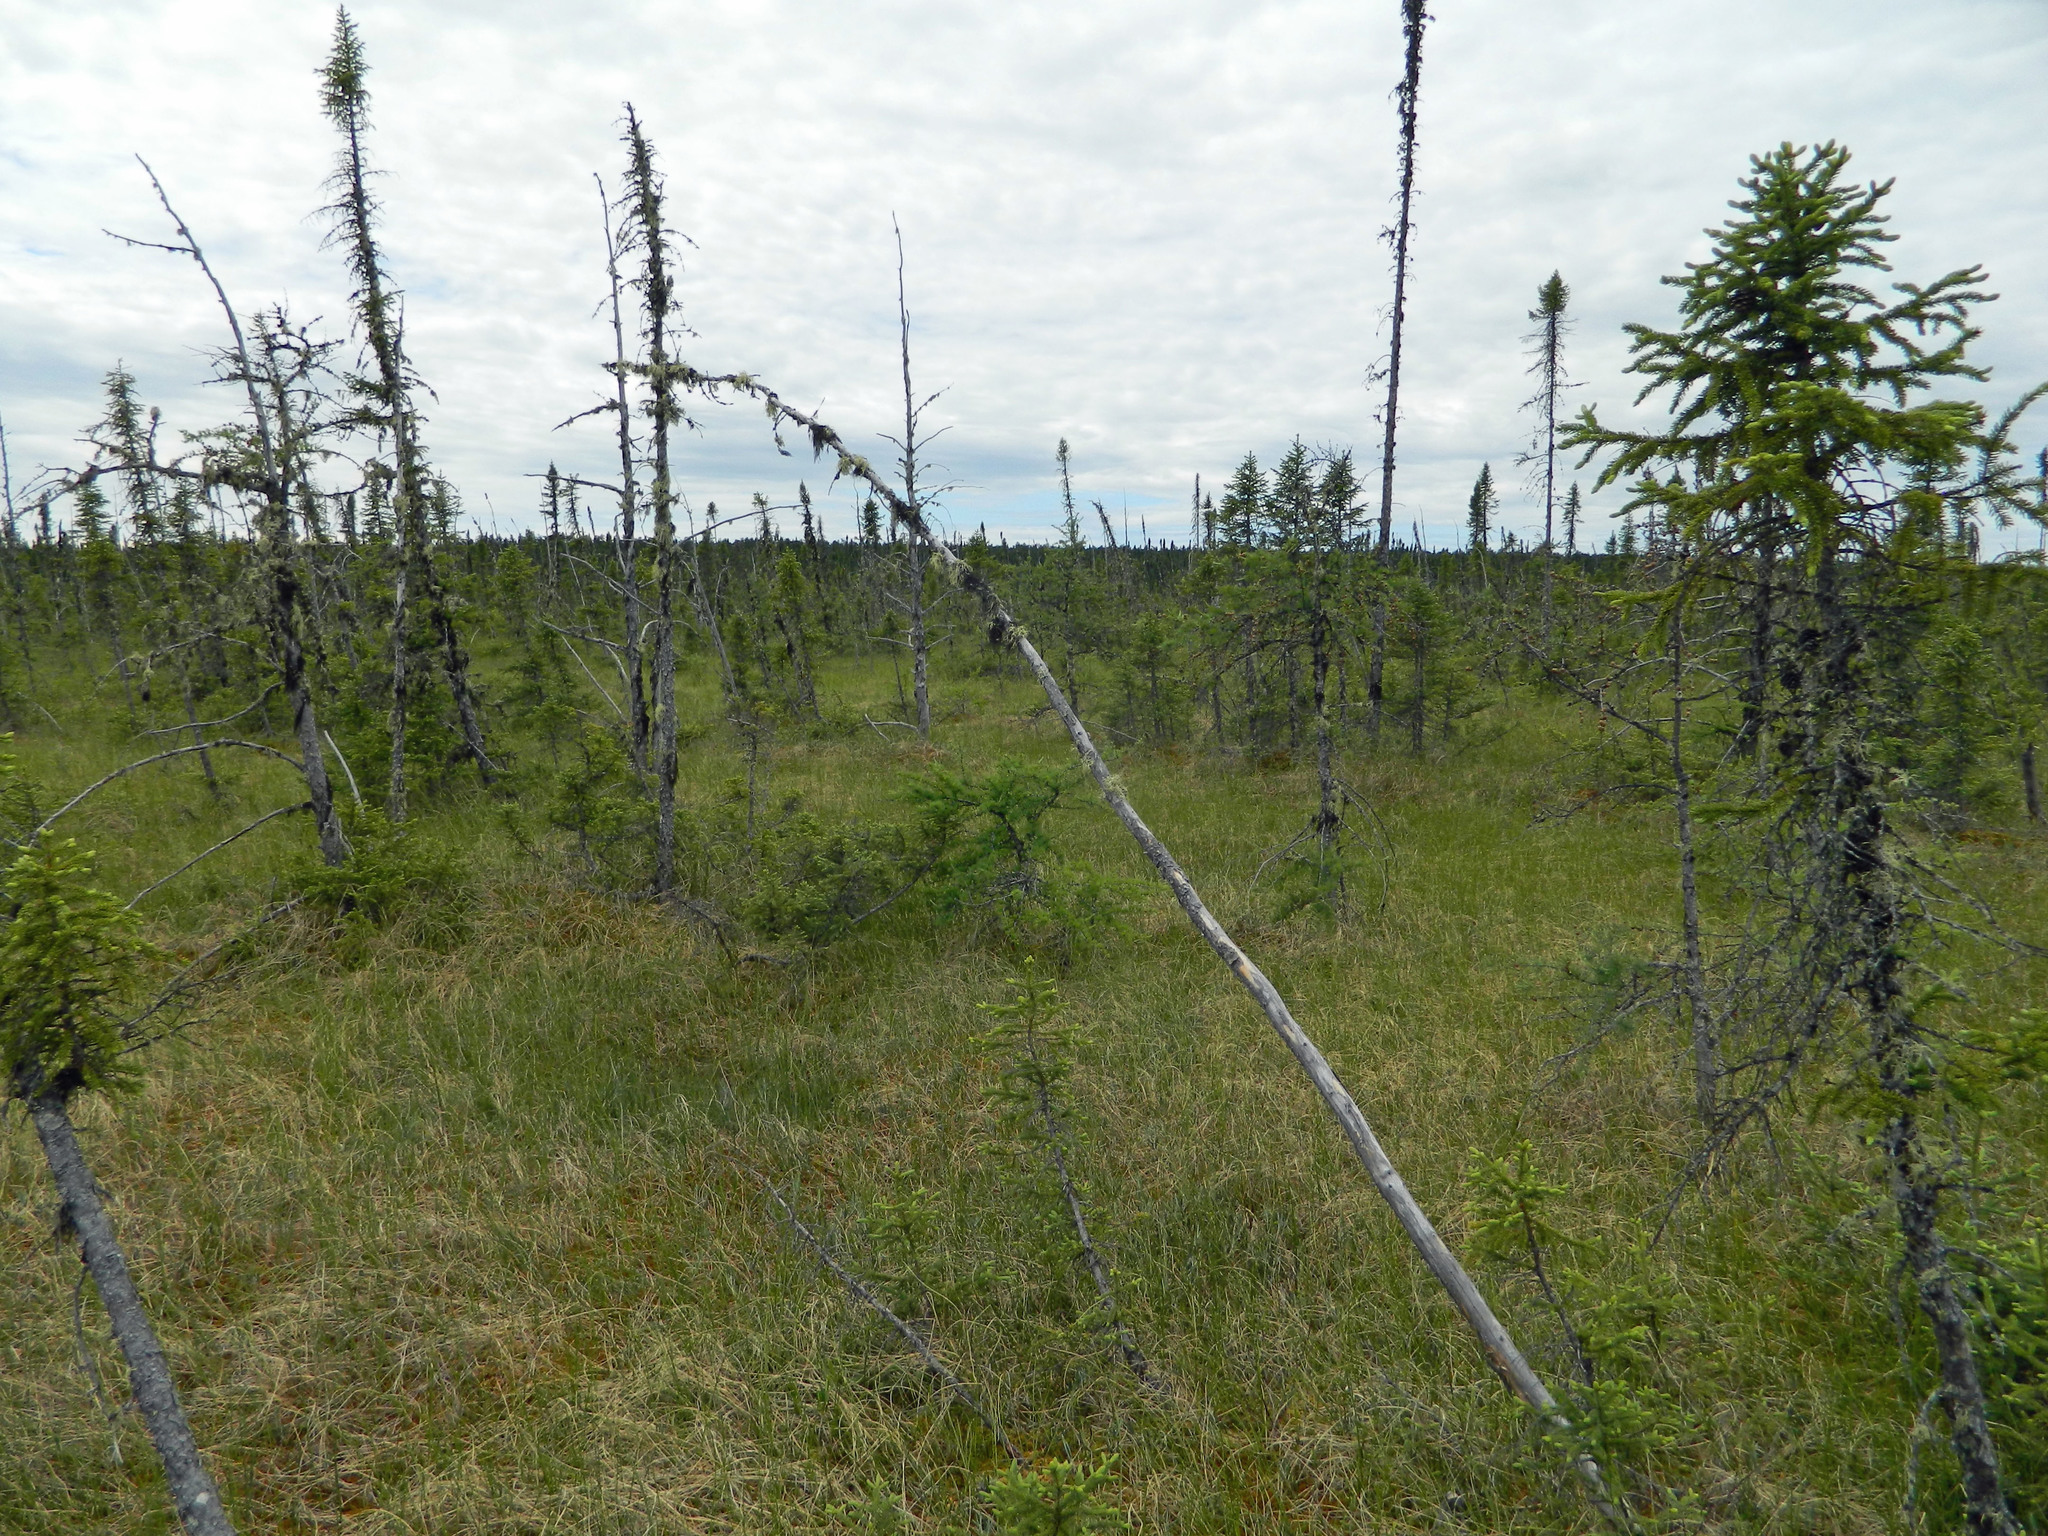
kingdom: Plantae
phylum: Tracheophyta
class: Pinopsida
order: Pinales
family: Pinaceae
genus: Picea
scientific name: Picea mariana
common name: Black spruce
